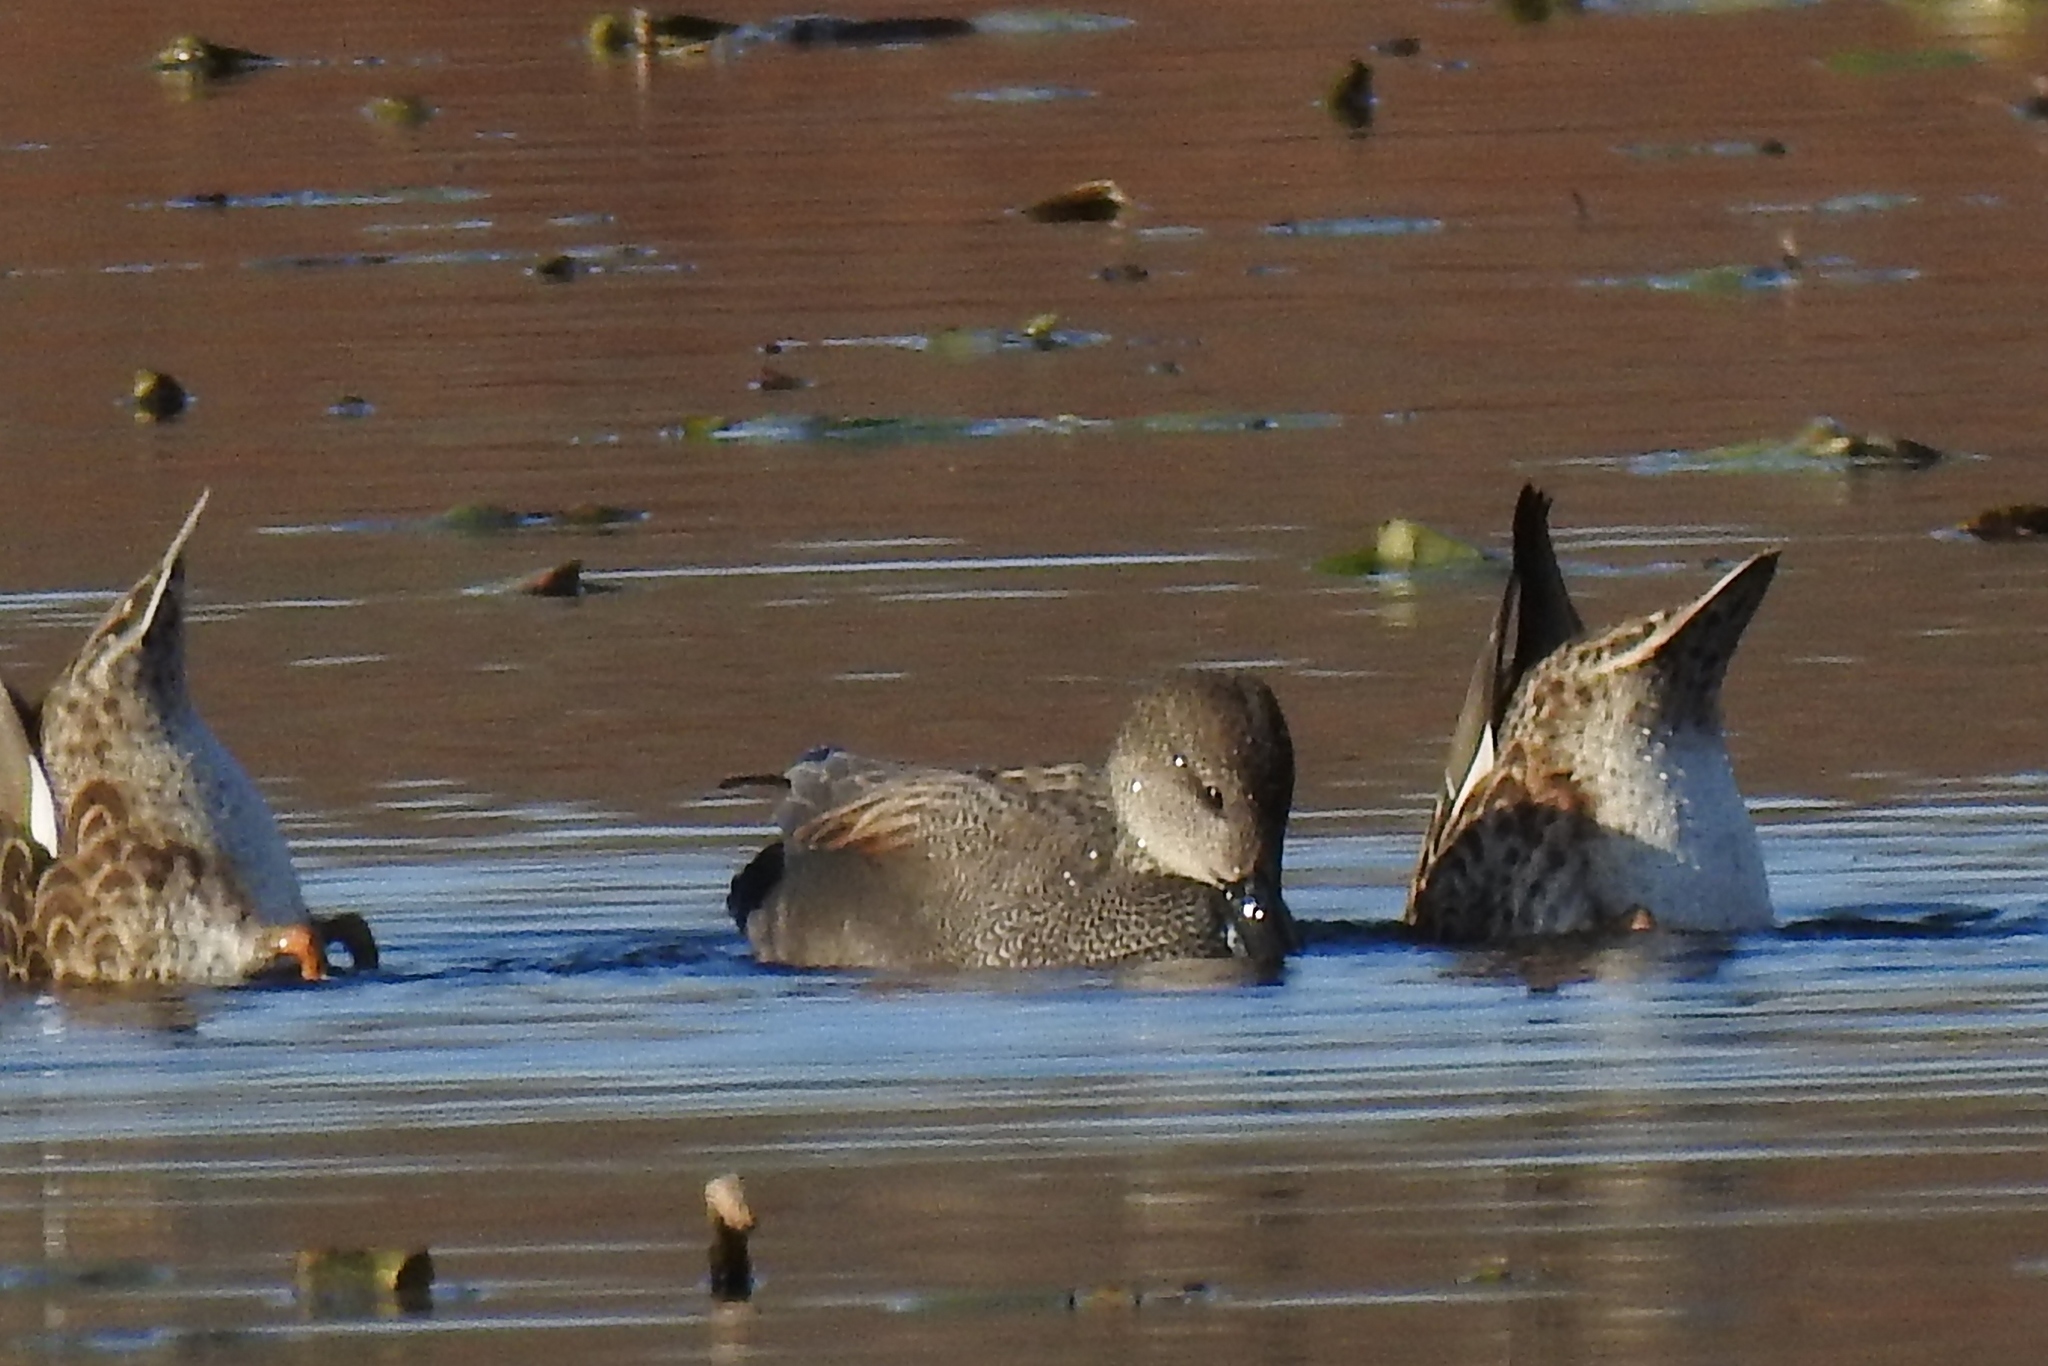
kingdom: Animalia
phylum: Chordata
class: Aves
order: Anseriformes
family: Anatidae
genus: Mareca
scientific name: Mareca strepera
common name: Gadwall
